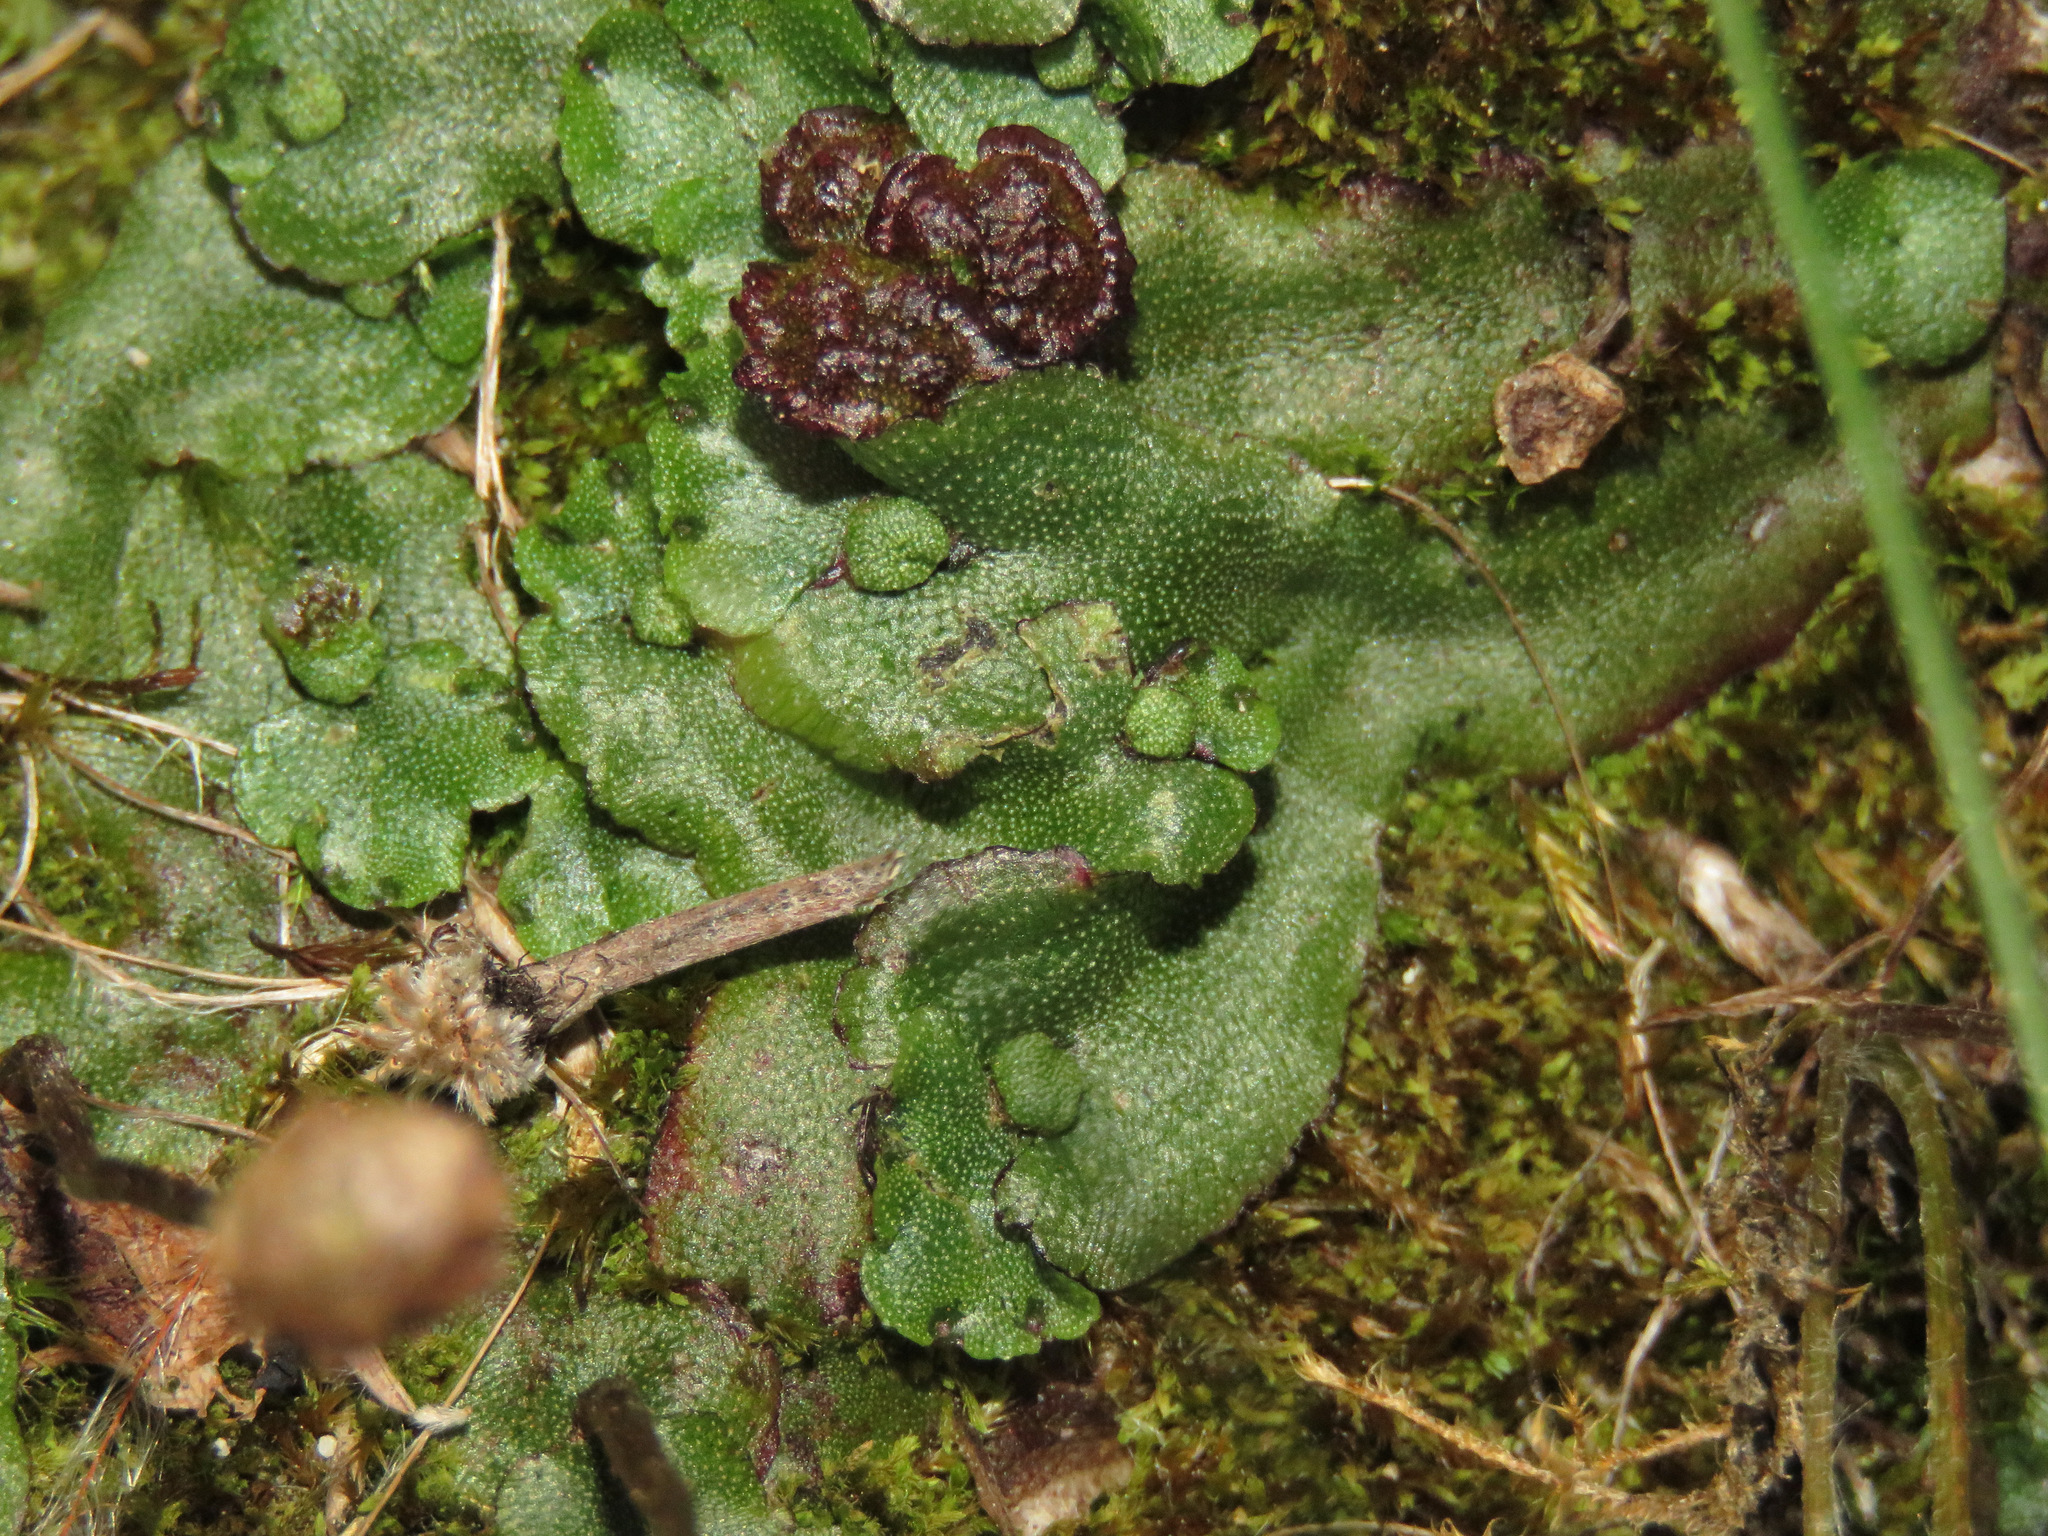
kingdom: Plantae
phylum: Marchantiophyta
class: Marchantiopsida
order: Marchantiales
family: Marchantiaceae
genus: Marchantia
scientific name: Marchantia quadrata
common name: Narrow mushroom-headed liverwort
